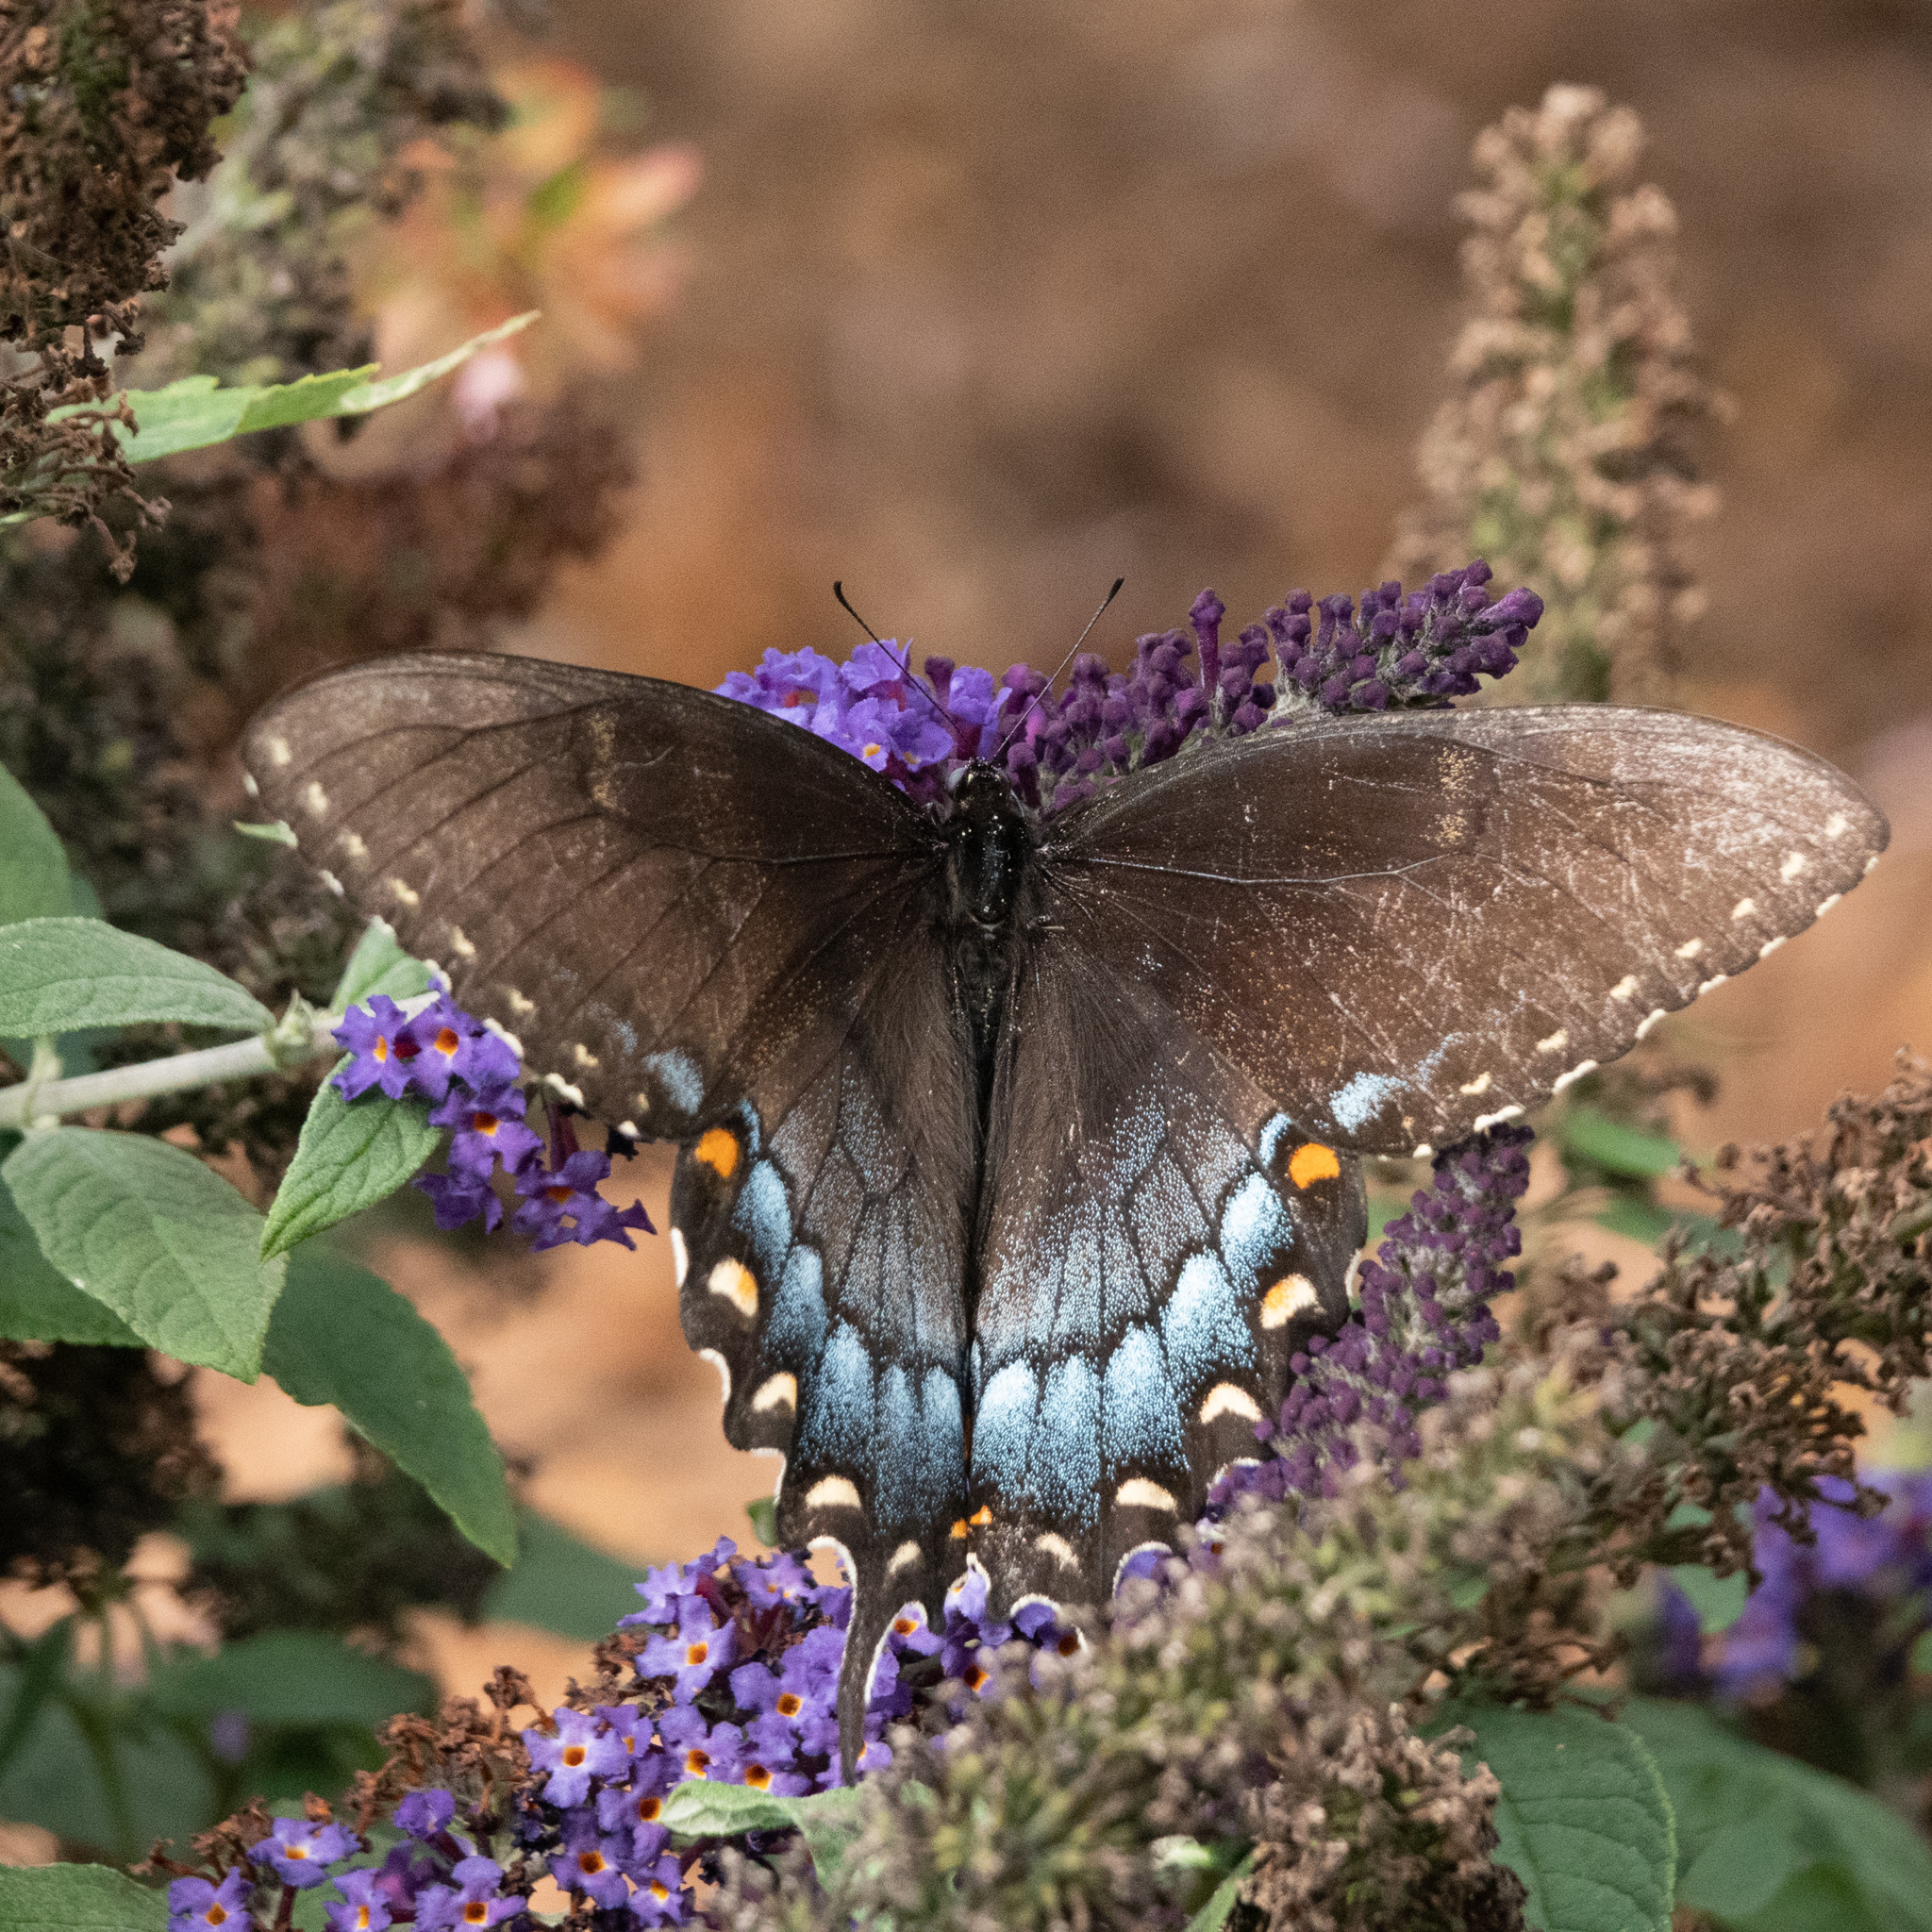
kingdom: Animalia
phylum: Arthropoda
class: Insecta
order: Lepidoptera
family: Papilionidae
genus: Papilio
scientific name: Papilio glaucus
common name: Tiger swallowtail
